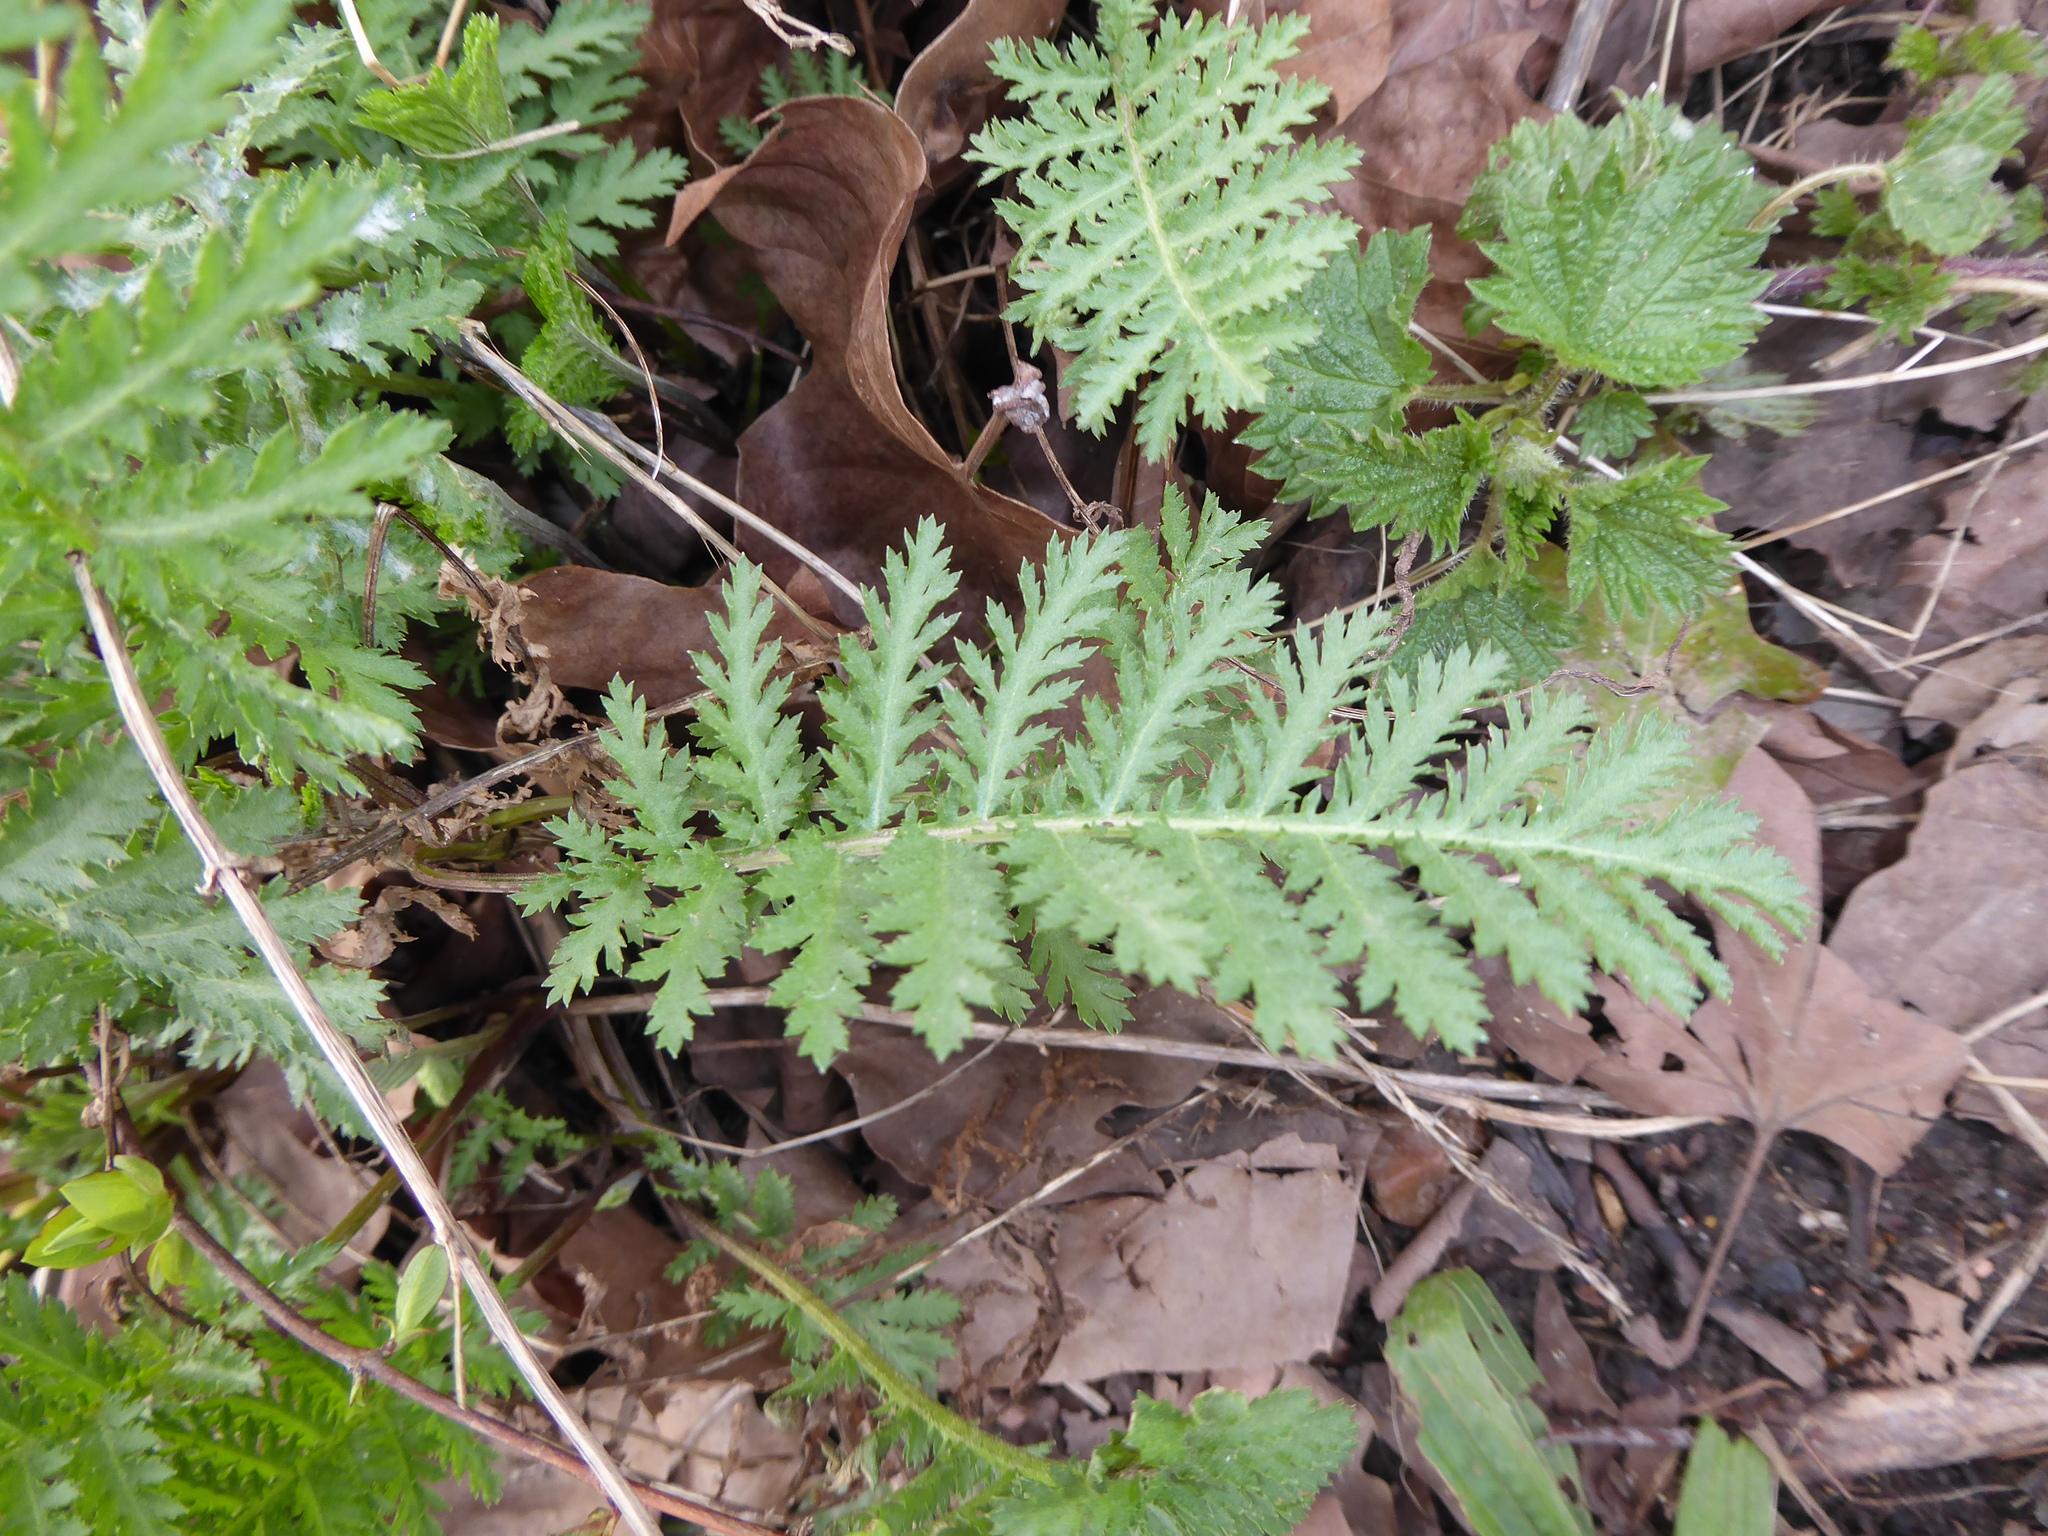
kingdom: Plantae
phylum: Tracheophyta
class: Magnoliopsida
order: Asterales
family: Asteraceae
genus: Tanacetum
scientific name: Tanacetum vulgare
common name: Common tansy
